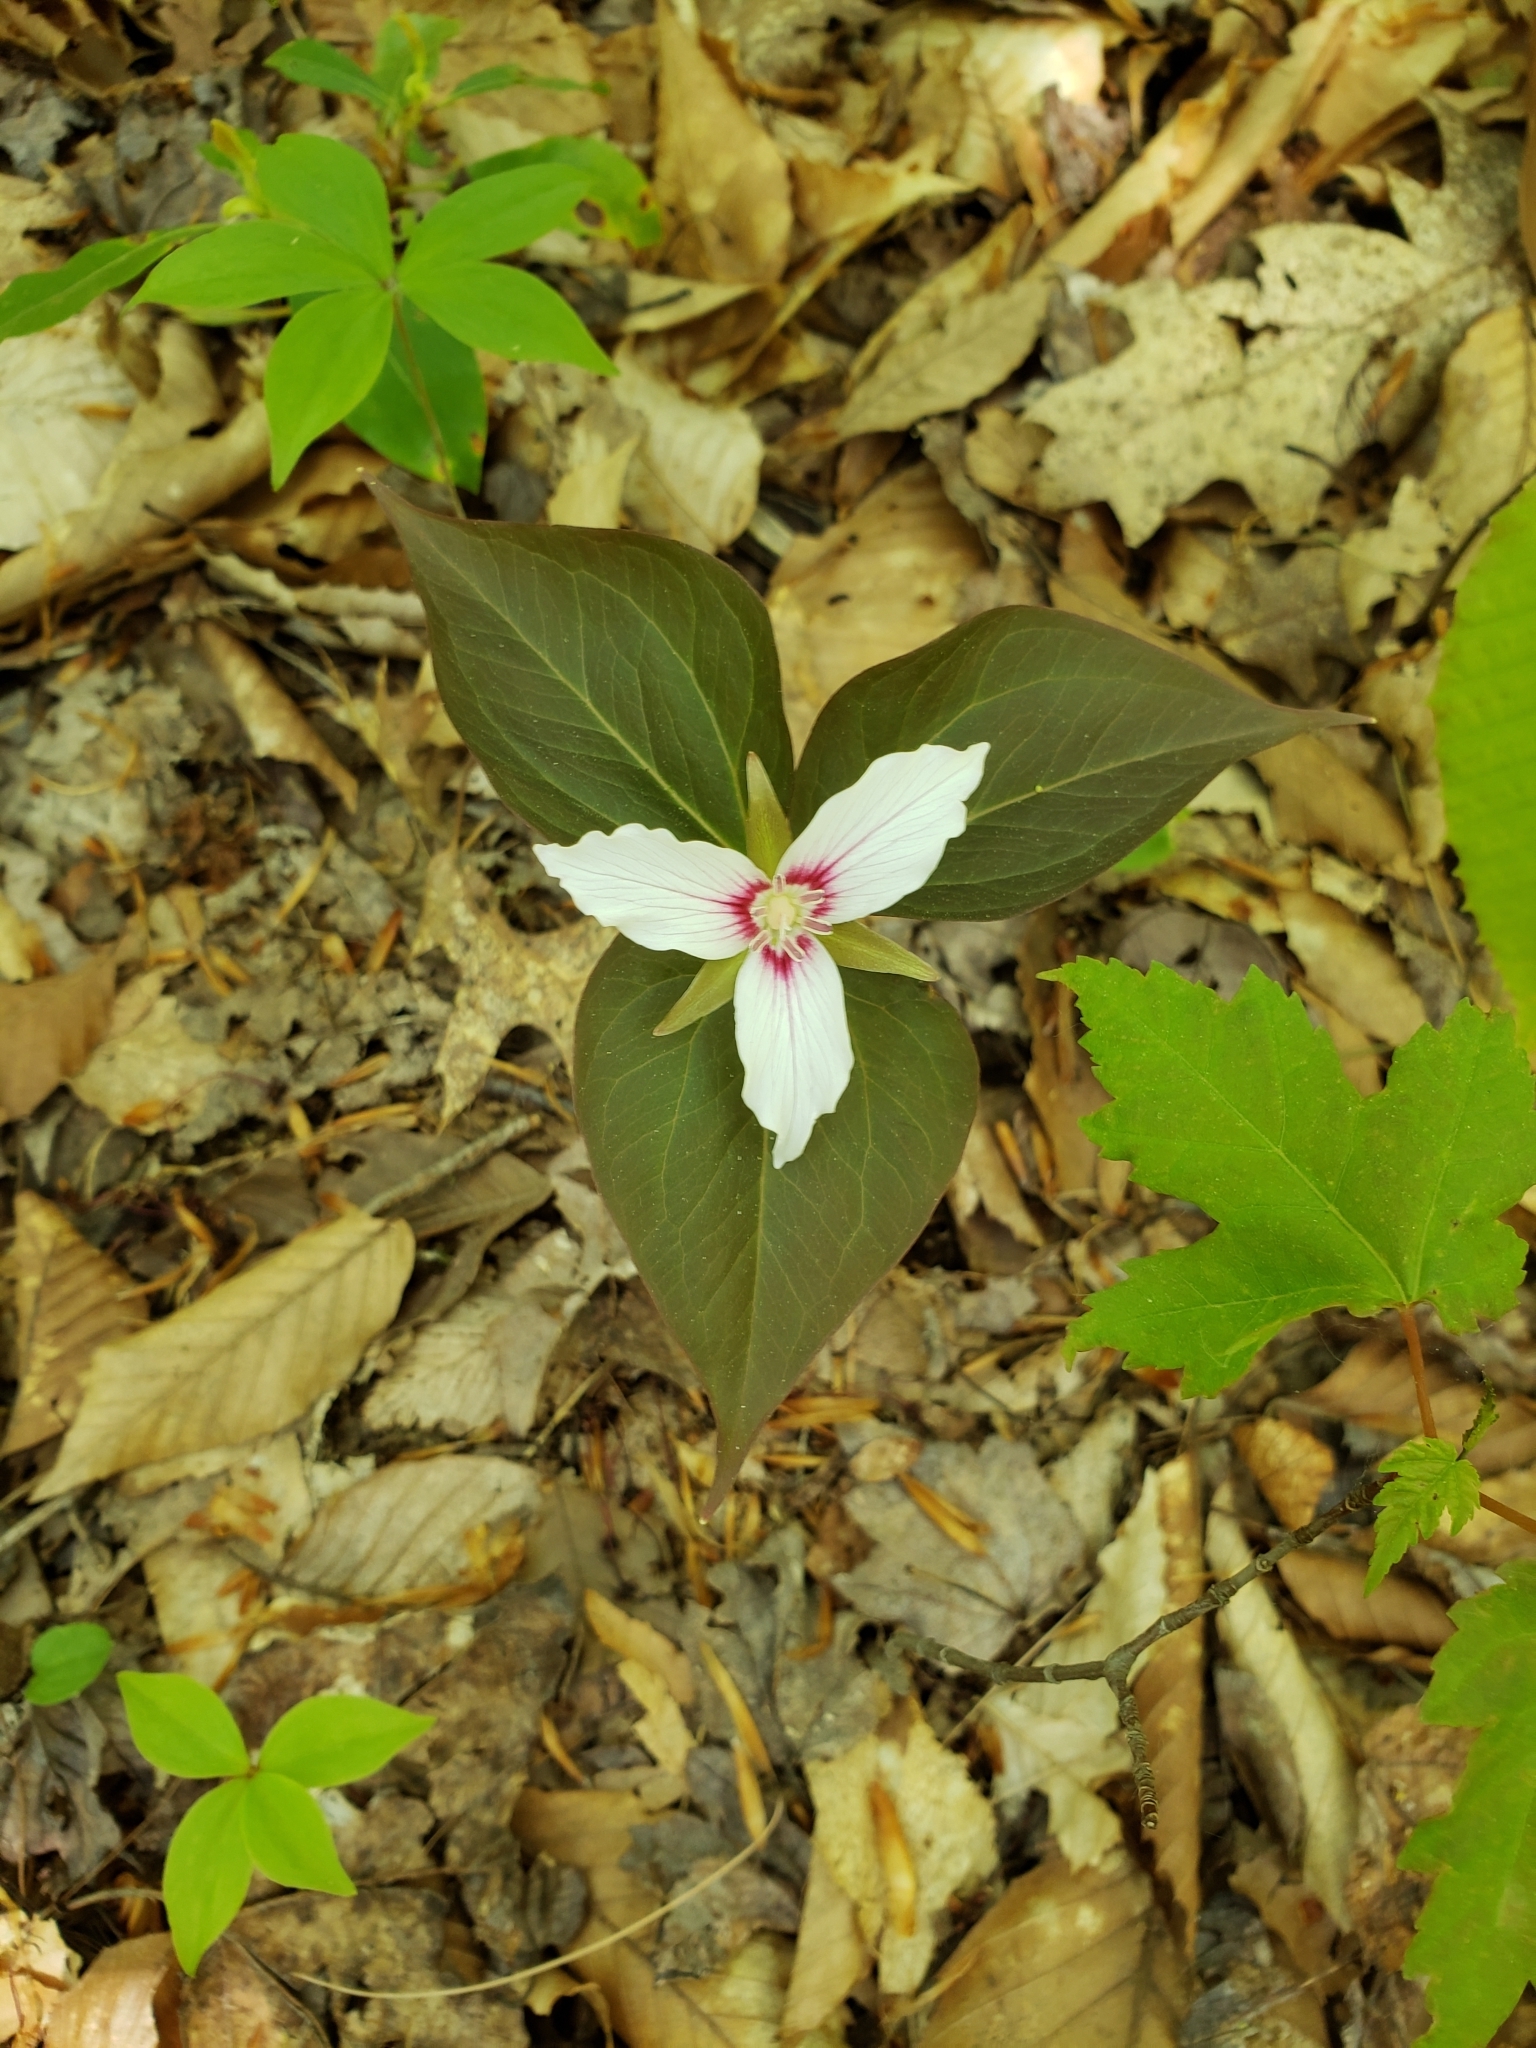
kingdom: Plantae
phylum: Tracheophyta
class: Liliopsida
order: Liliales
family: Melanthiaceae
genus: Trillium
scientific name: Trillium undulatum
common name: Paint trillium
